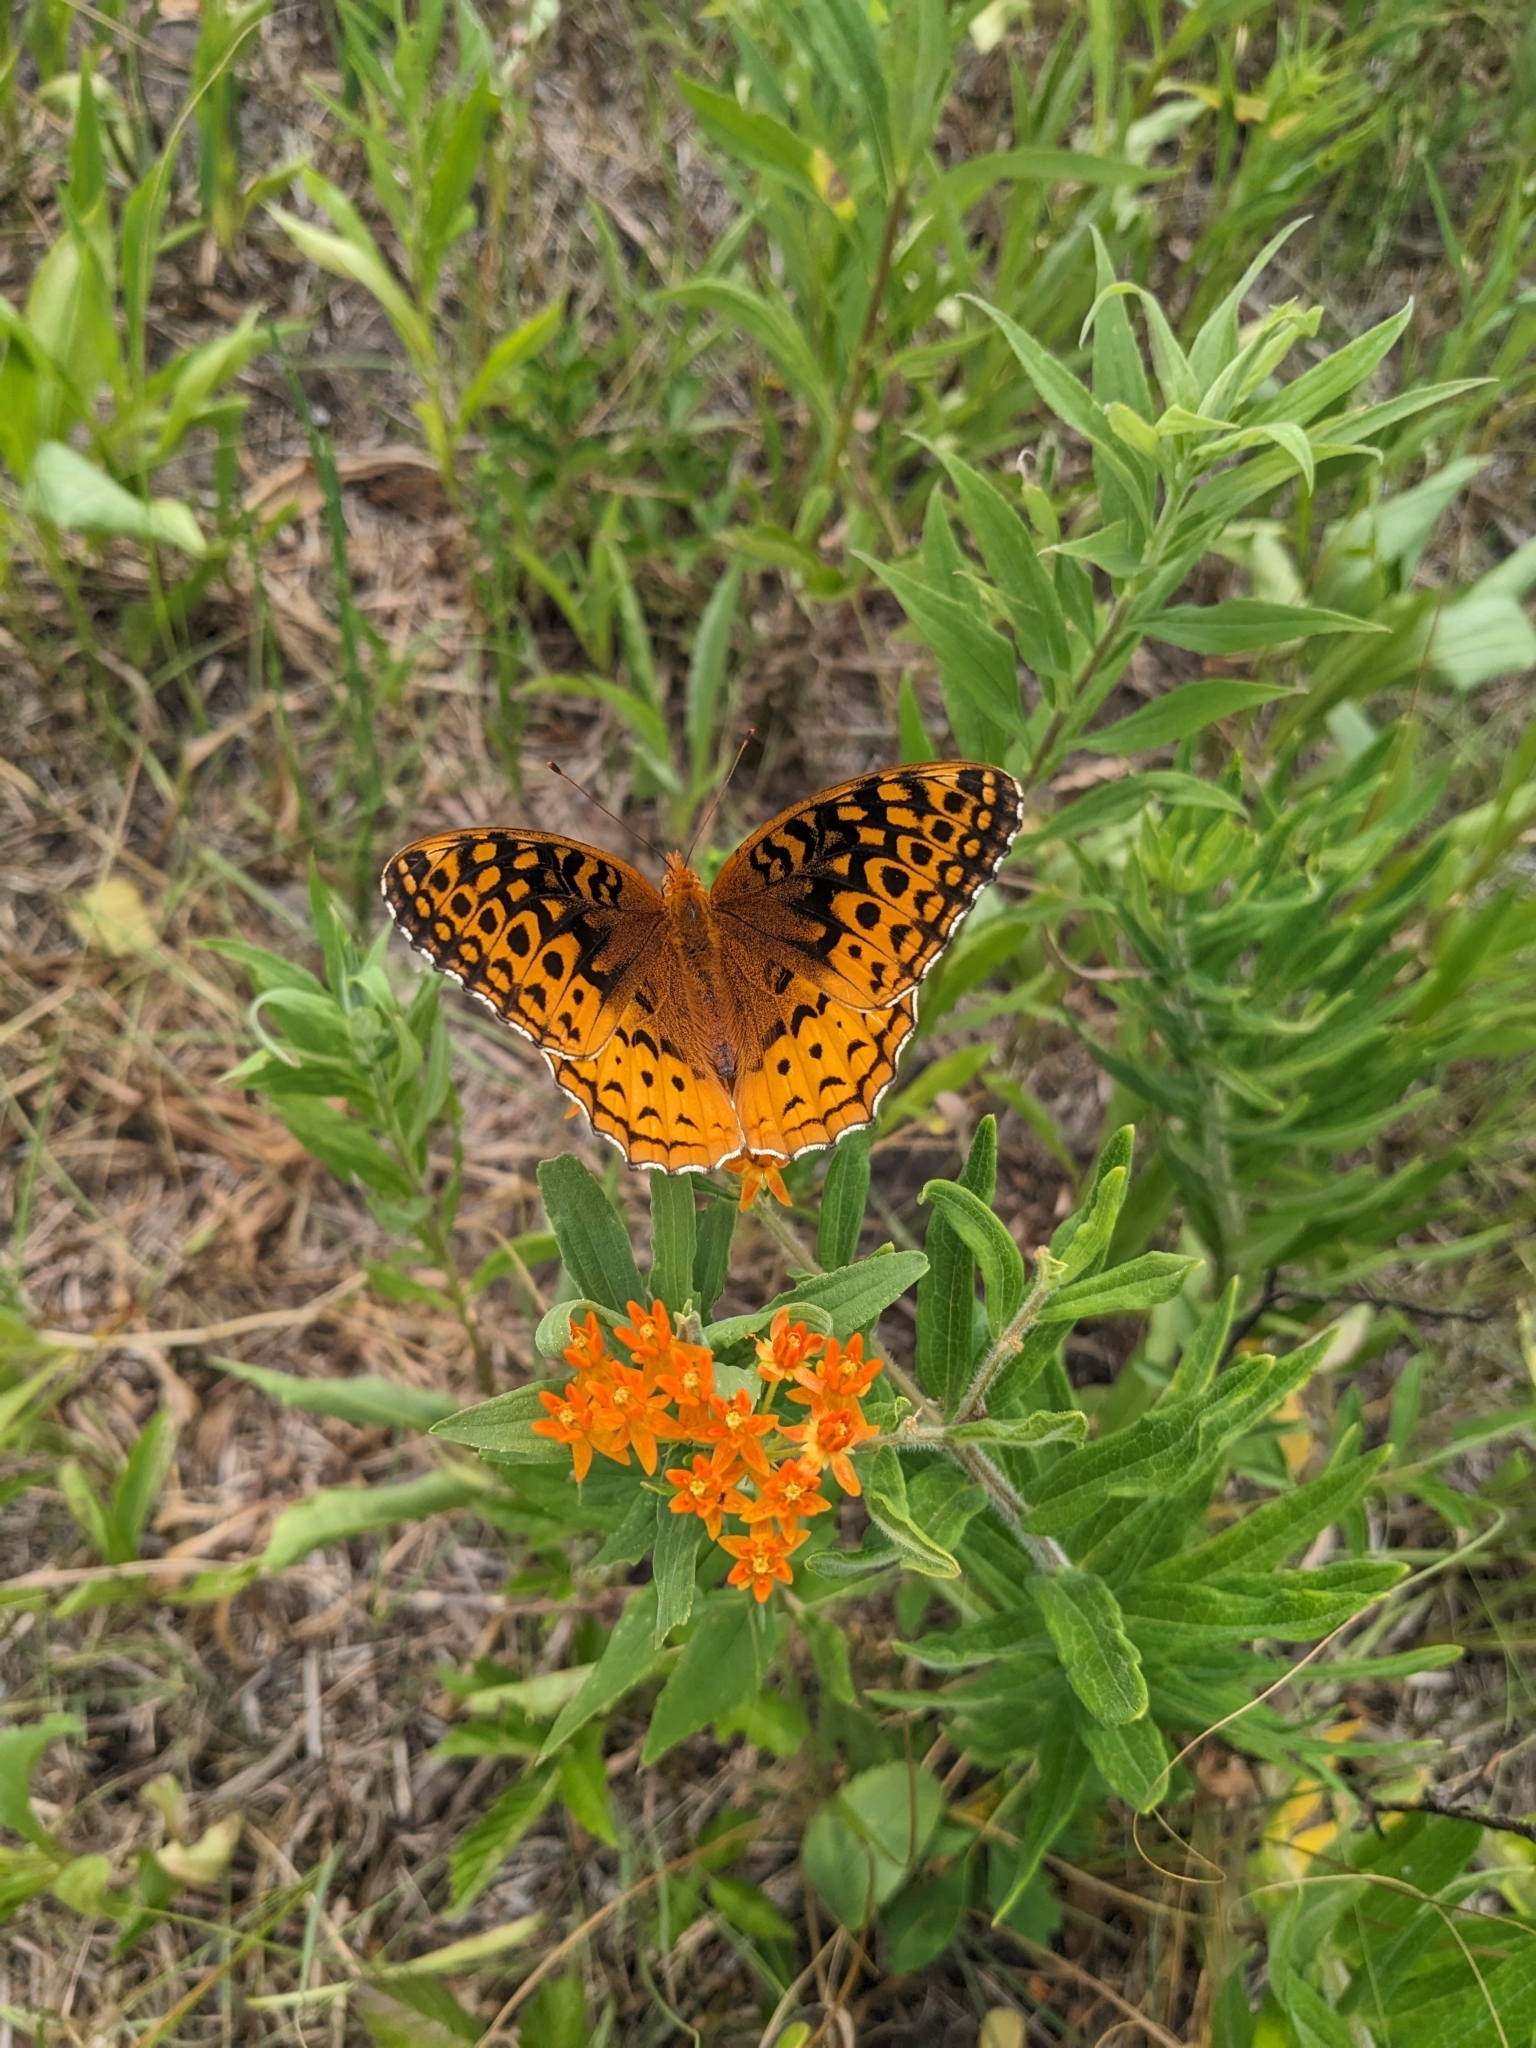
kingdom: Animalia
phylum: Arthropoda
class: Insecta
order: Lepidoptera
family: Nymphalidae
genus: Speyeria
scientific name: Speyeria cybele
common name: Great spangled fritillary
